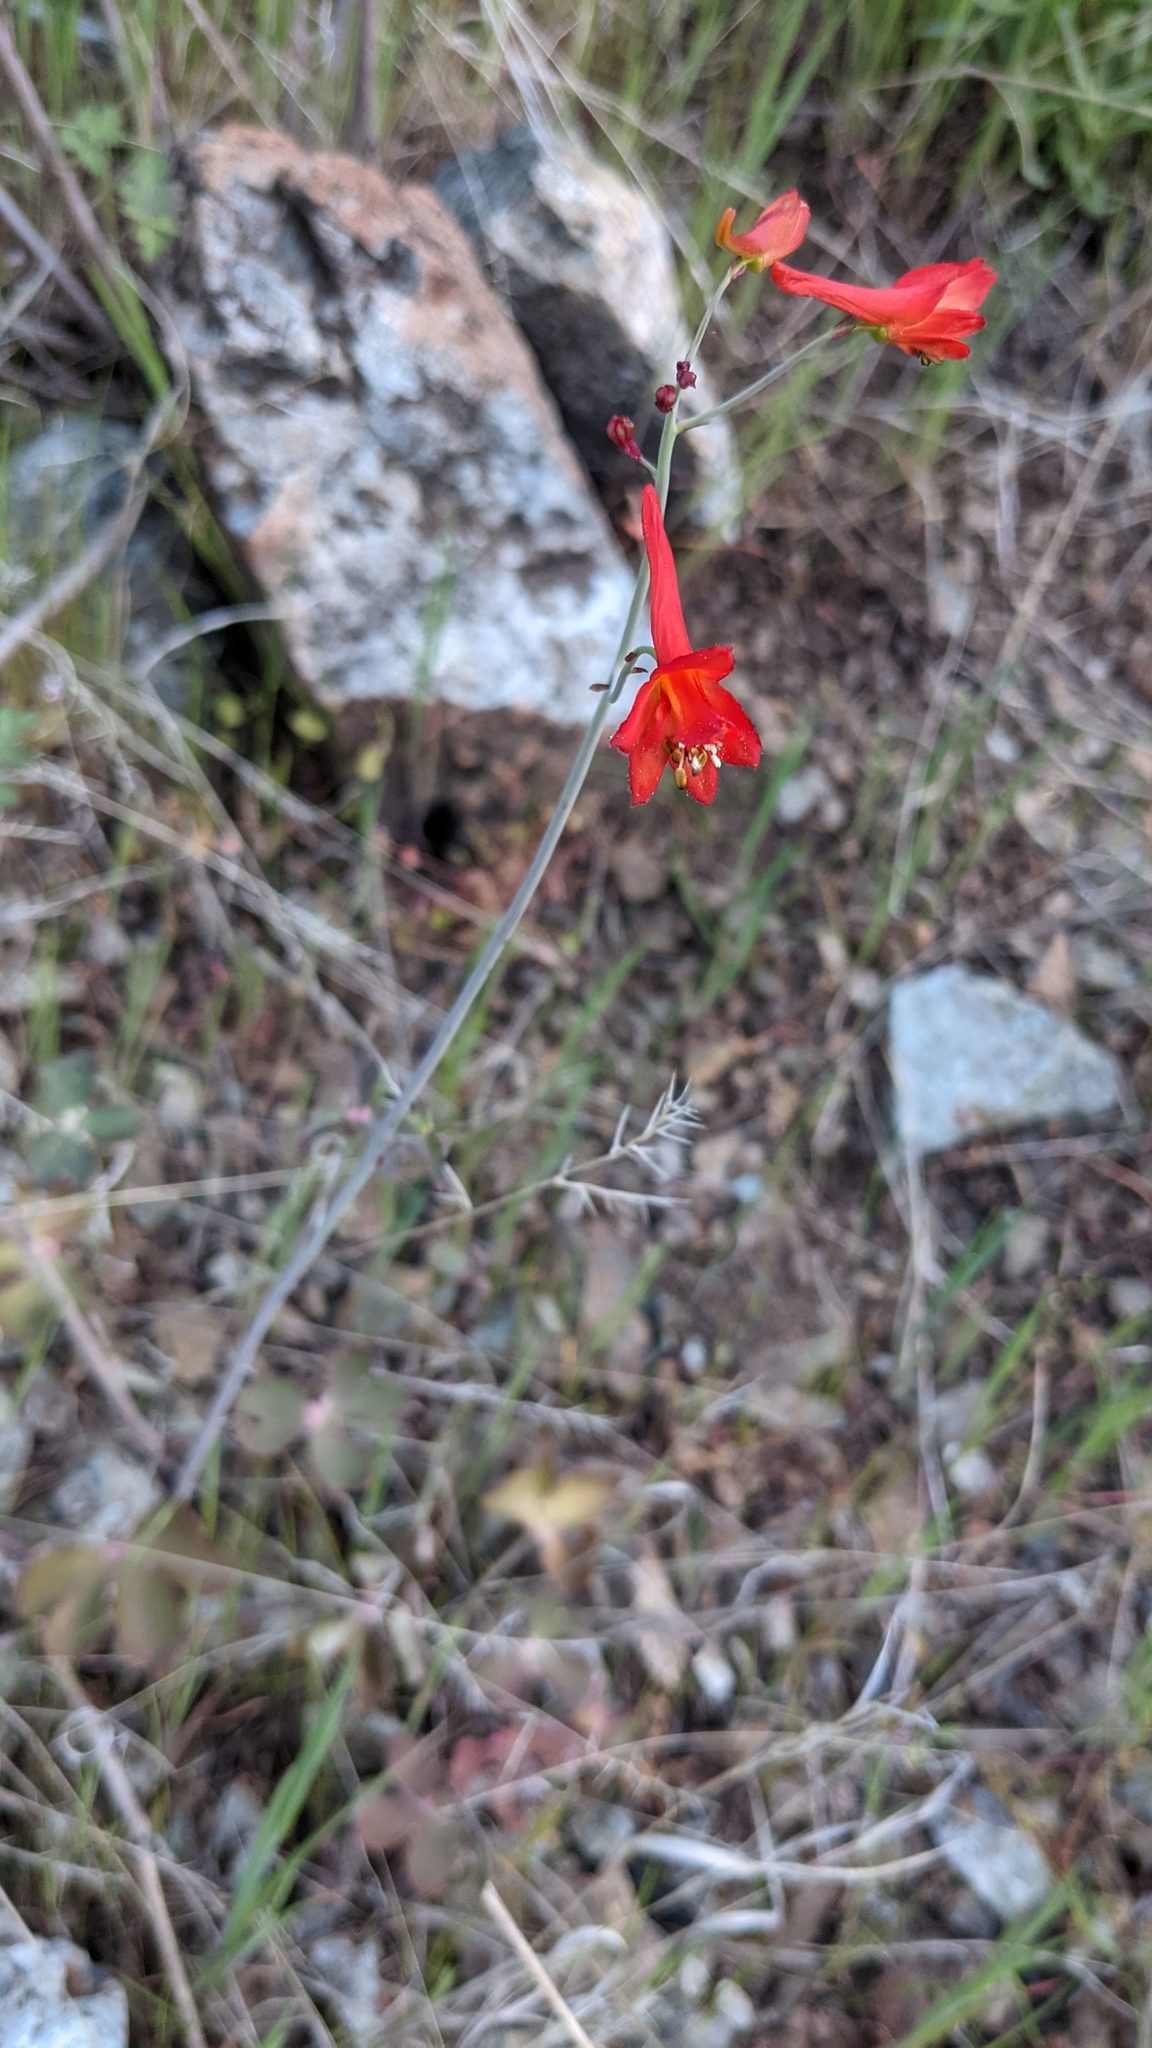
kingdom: Plantae
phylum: Tracheophyta
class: Magnoliopsida
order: Ranunculales
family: Ranunculaceae
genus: Delphinium
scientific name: Delphinium nudicaule
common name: Red larkspur
